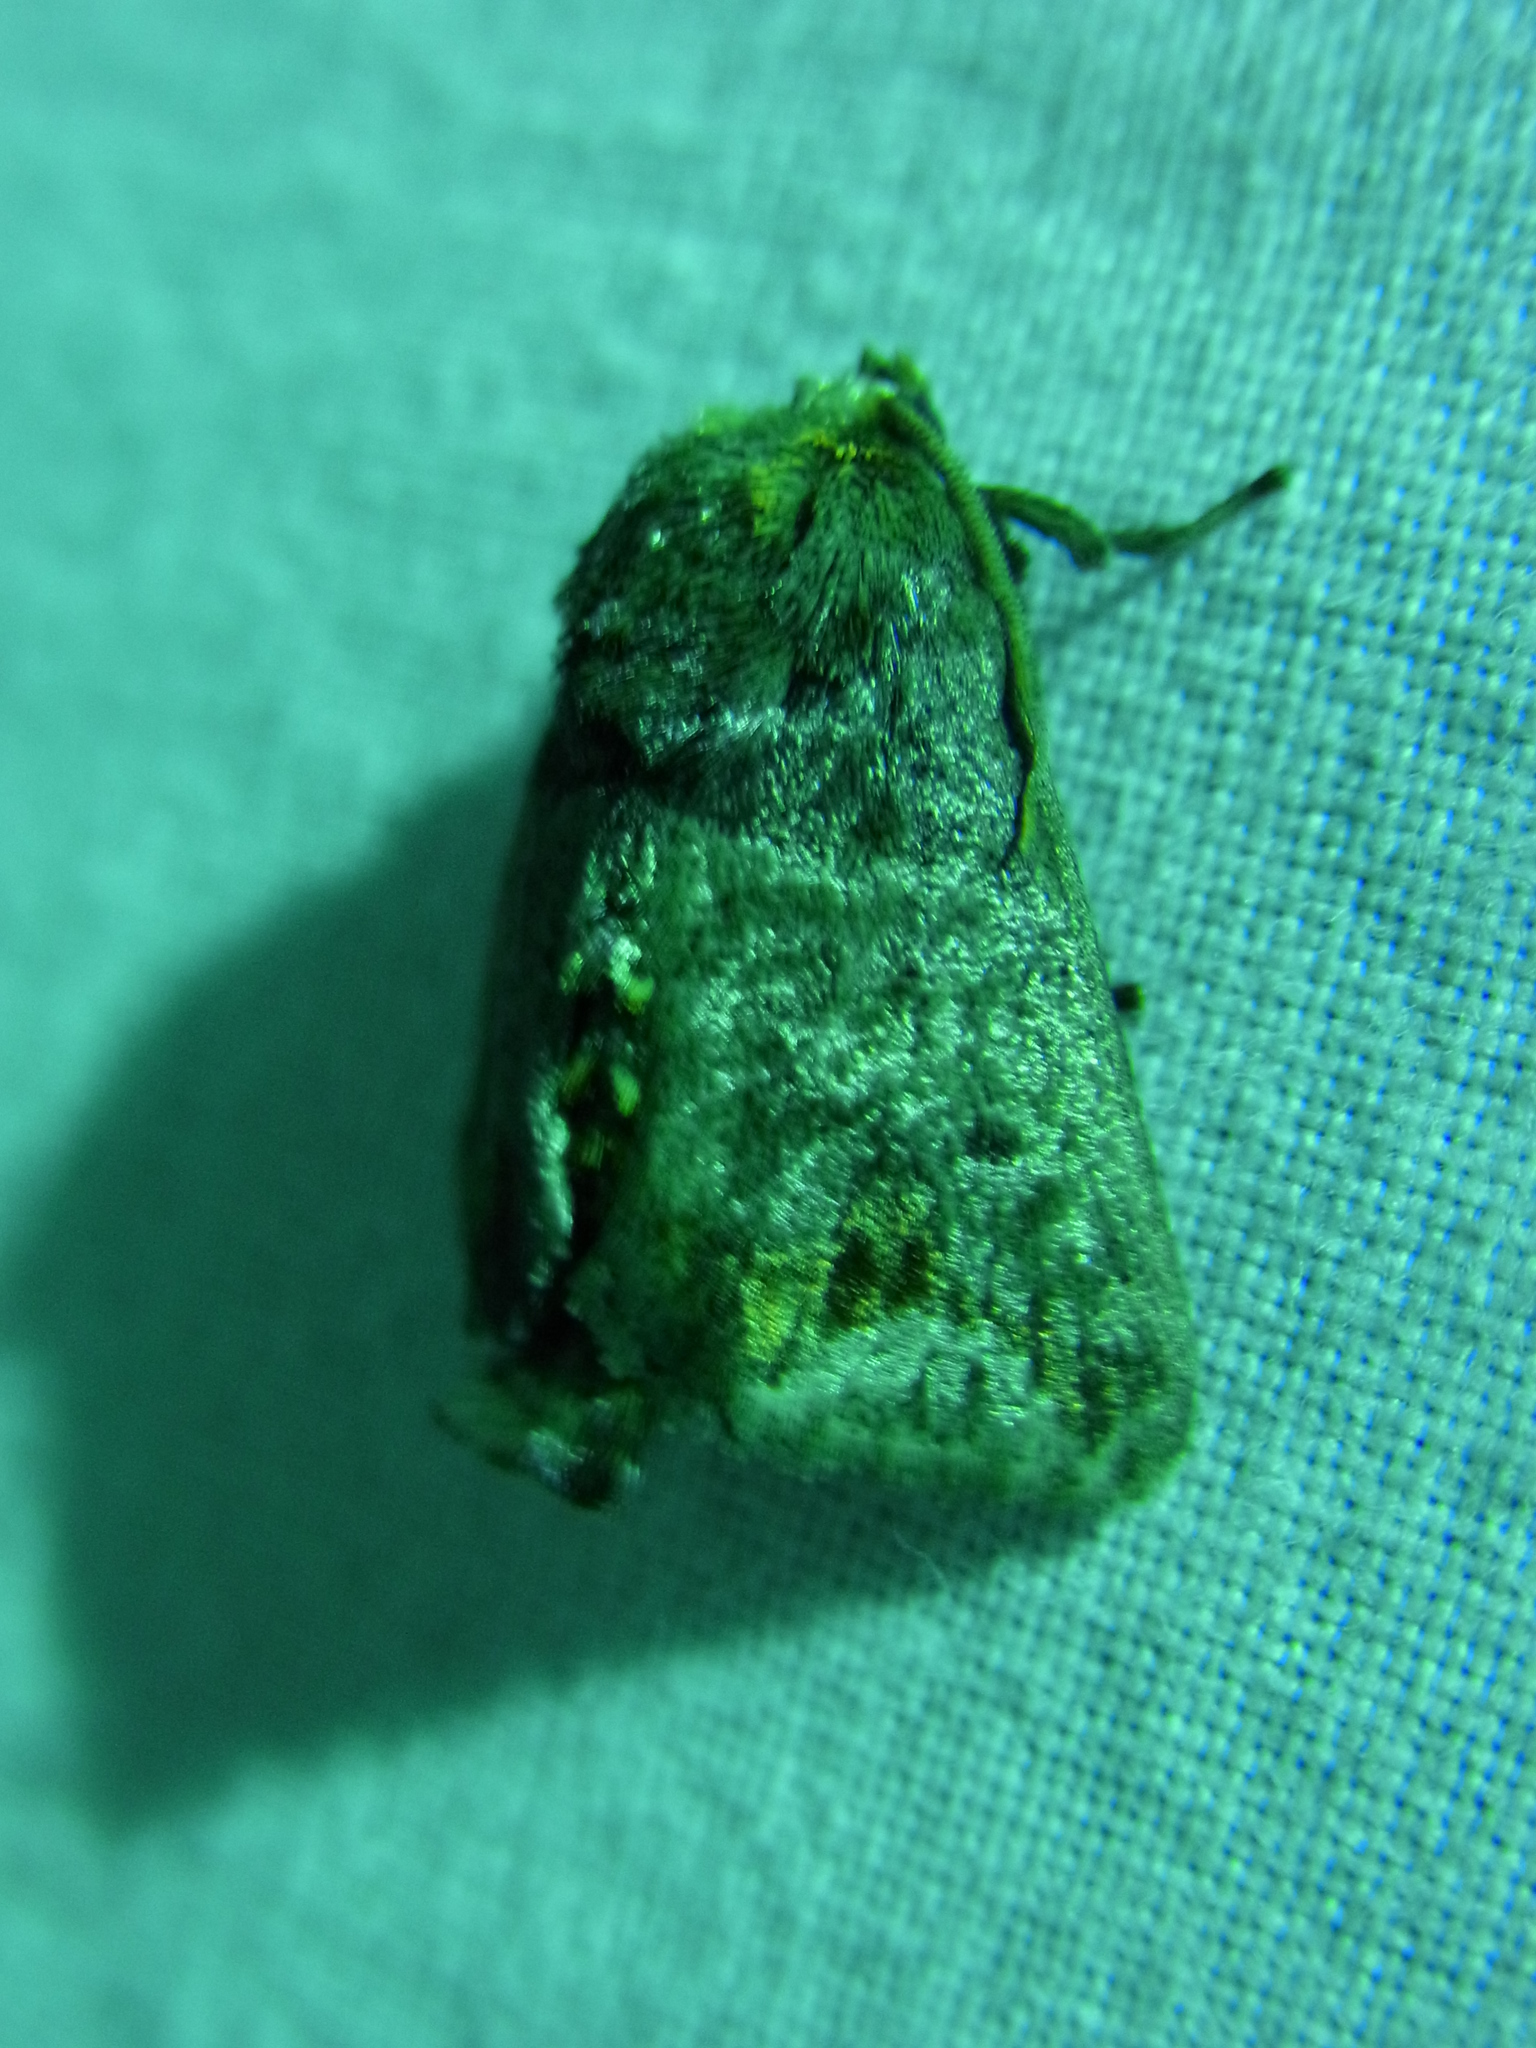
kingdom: Animalia
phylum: Arthropoda
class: Insecta
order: Lepidoptera
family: Limacodidae
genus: Phlossa
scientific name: Phlossa conjuncta
